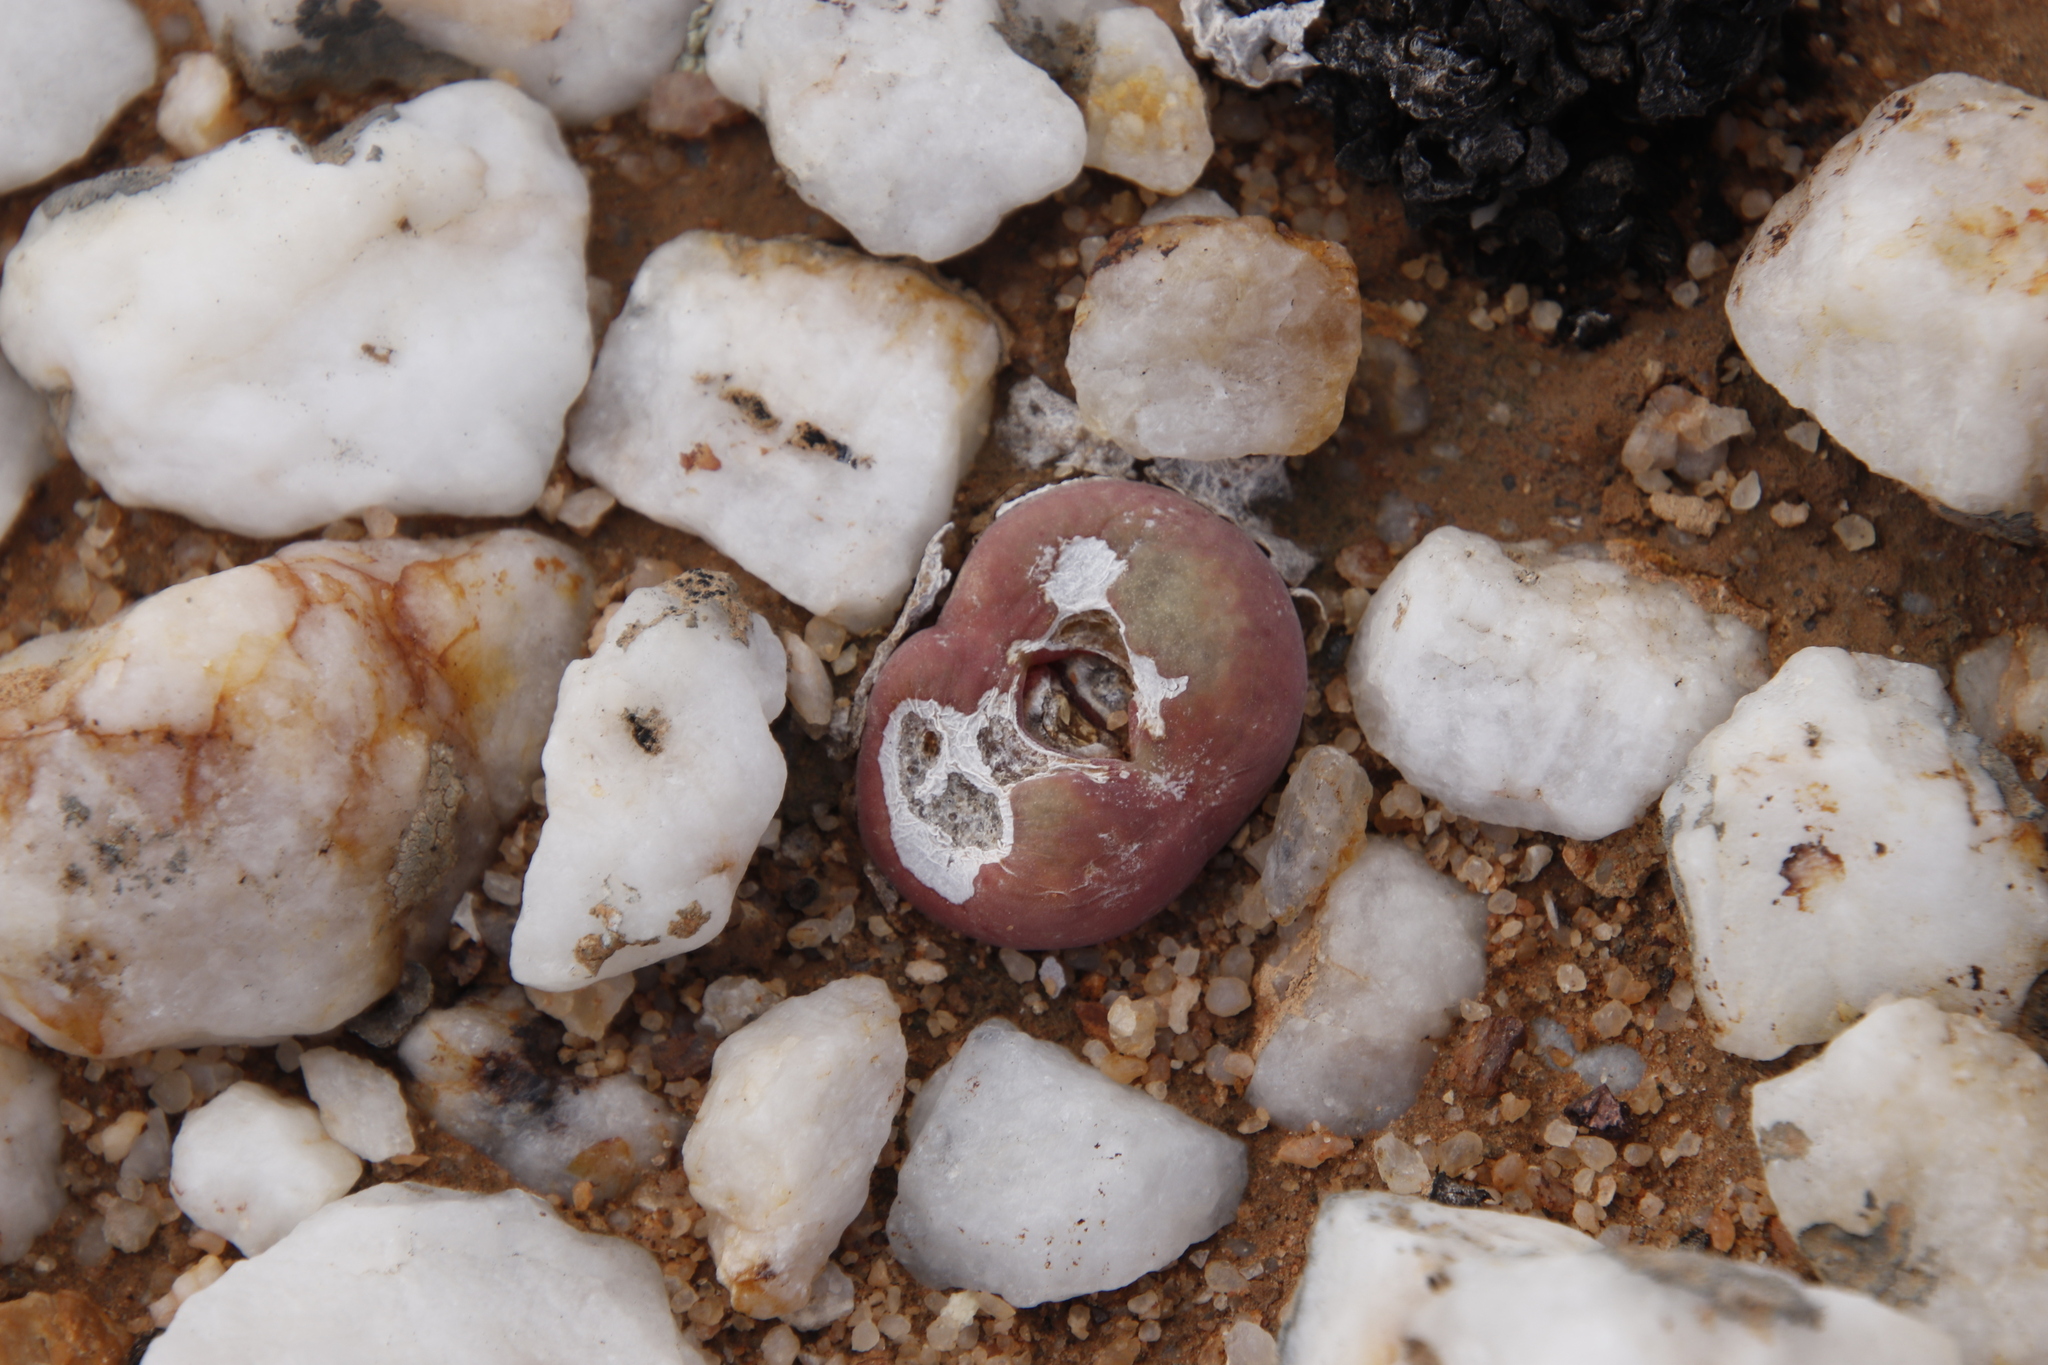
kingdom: Plantae
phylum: Tracheophyta
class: Magnoliopsida
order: Caryophyllales
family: Aizoaceae
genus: Conophytum
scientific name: Conophytum subfenestratum
